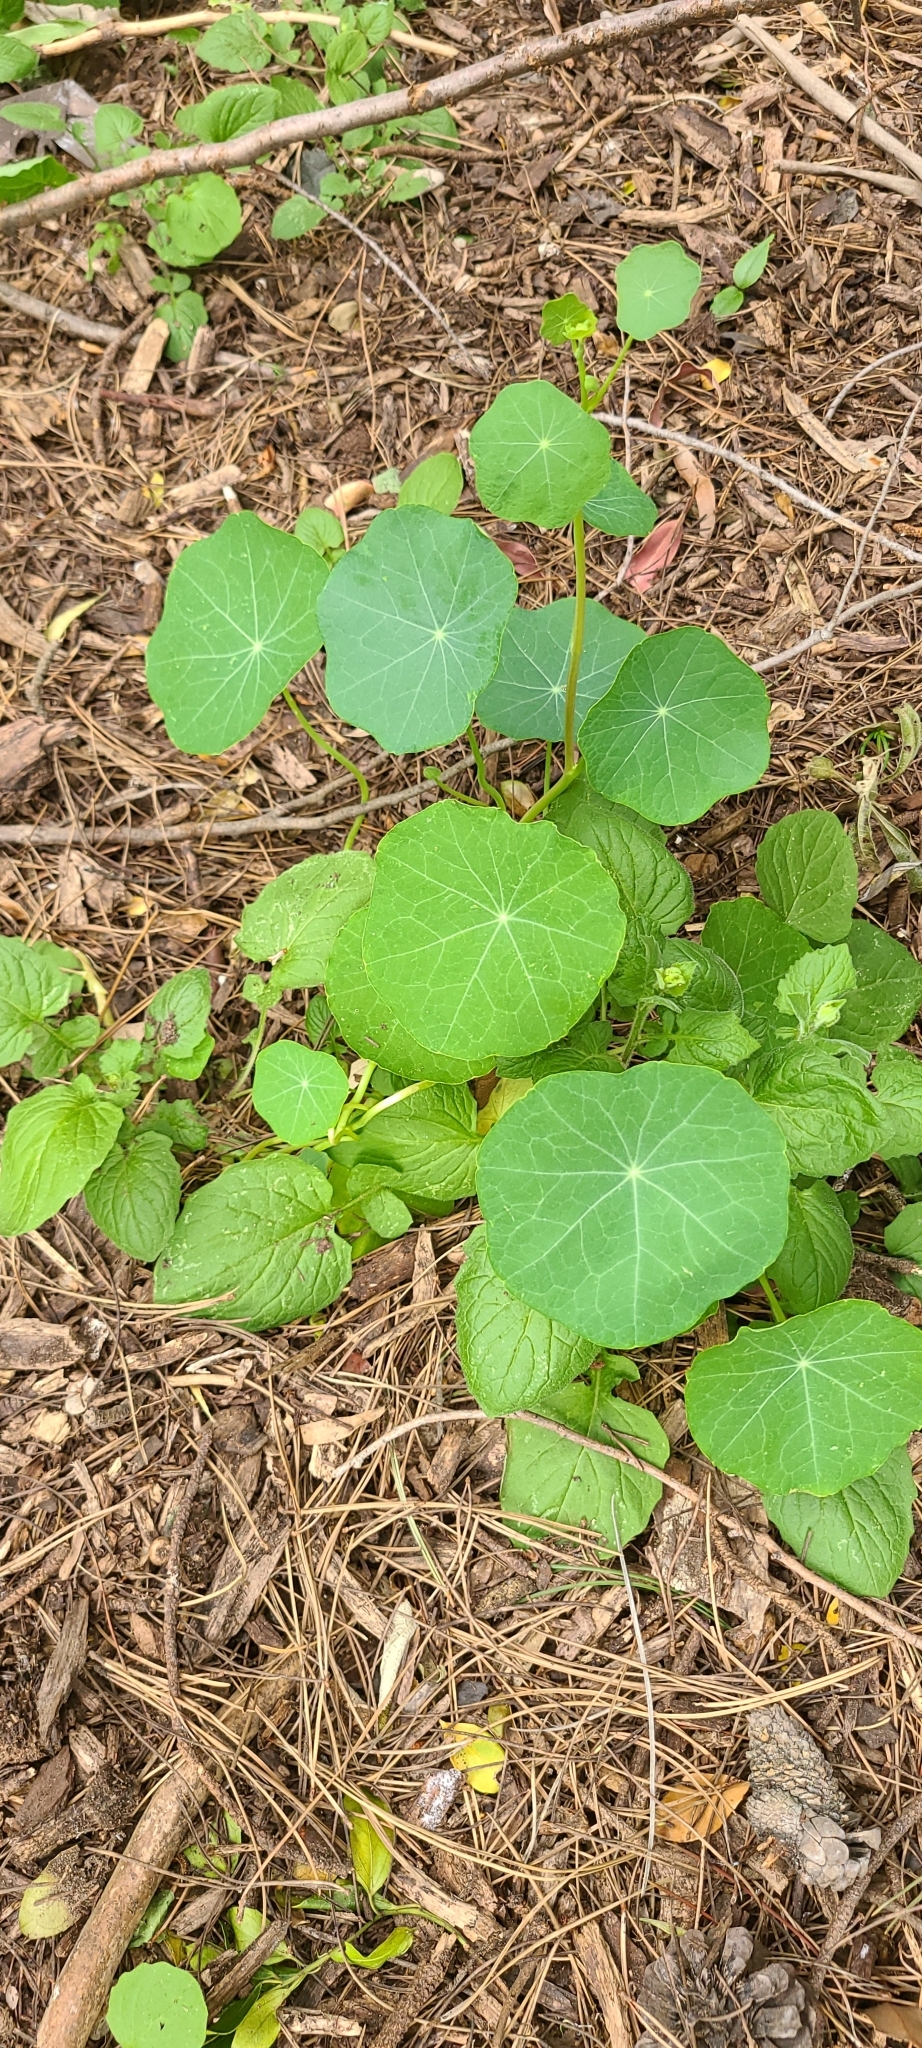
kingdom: Plantae
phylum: Tracheophyta
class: Magnoliopsida
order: Brassicales
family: Tropaeolaceae
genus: Tropaeolum
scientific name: Tropaeolum majus
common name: Nasturtium
